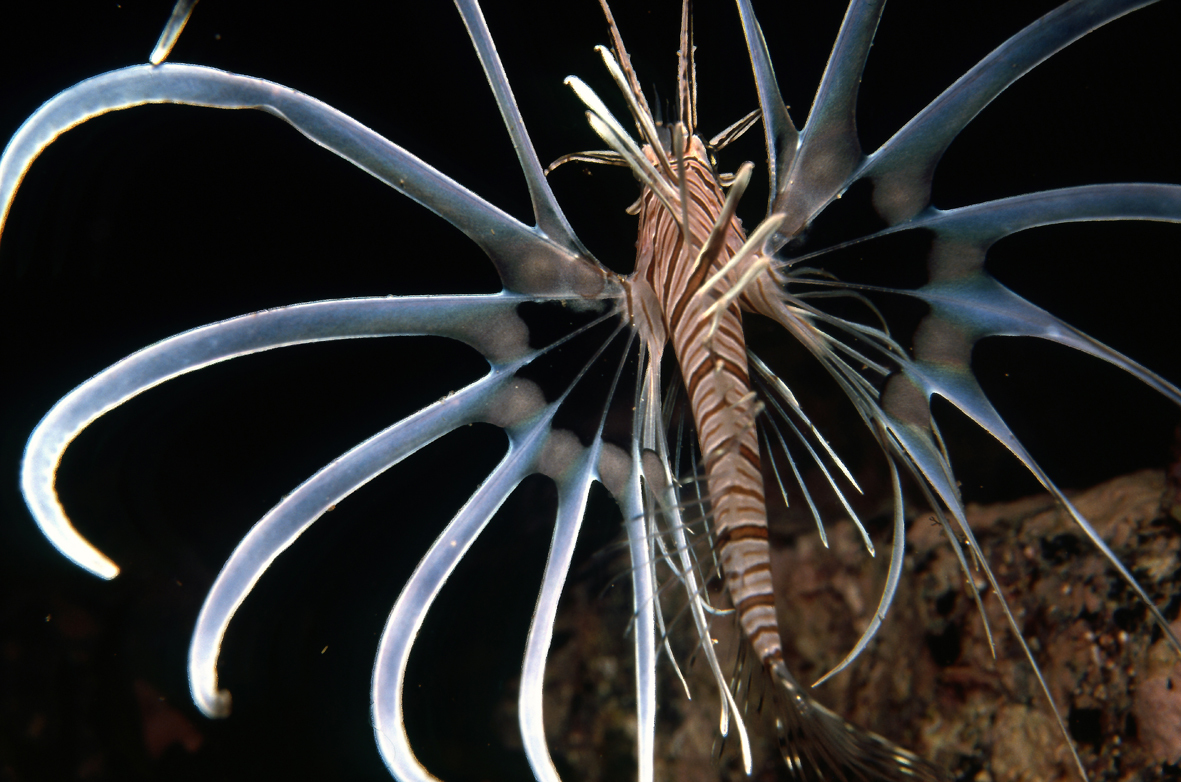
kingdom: Animalia
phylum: Chordata
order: Scorpaeniformes
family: Scorpaenidae
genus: Pterois
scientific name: Pterois volitans
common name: Lionfish
